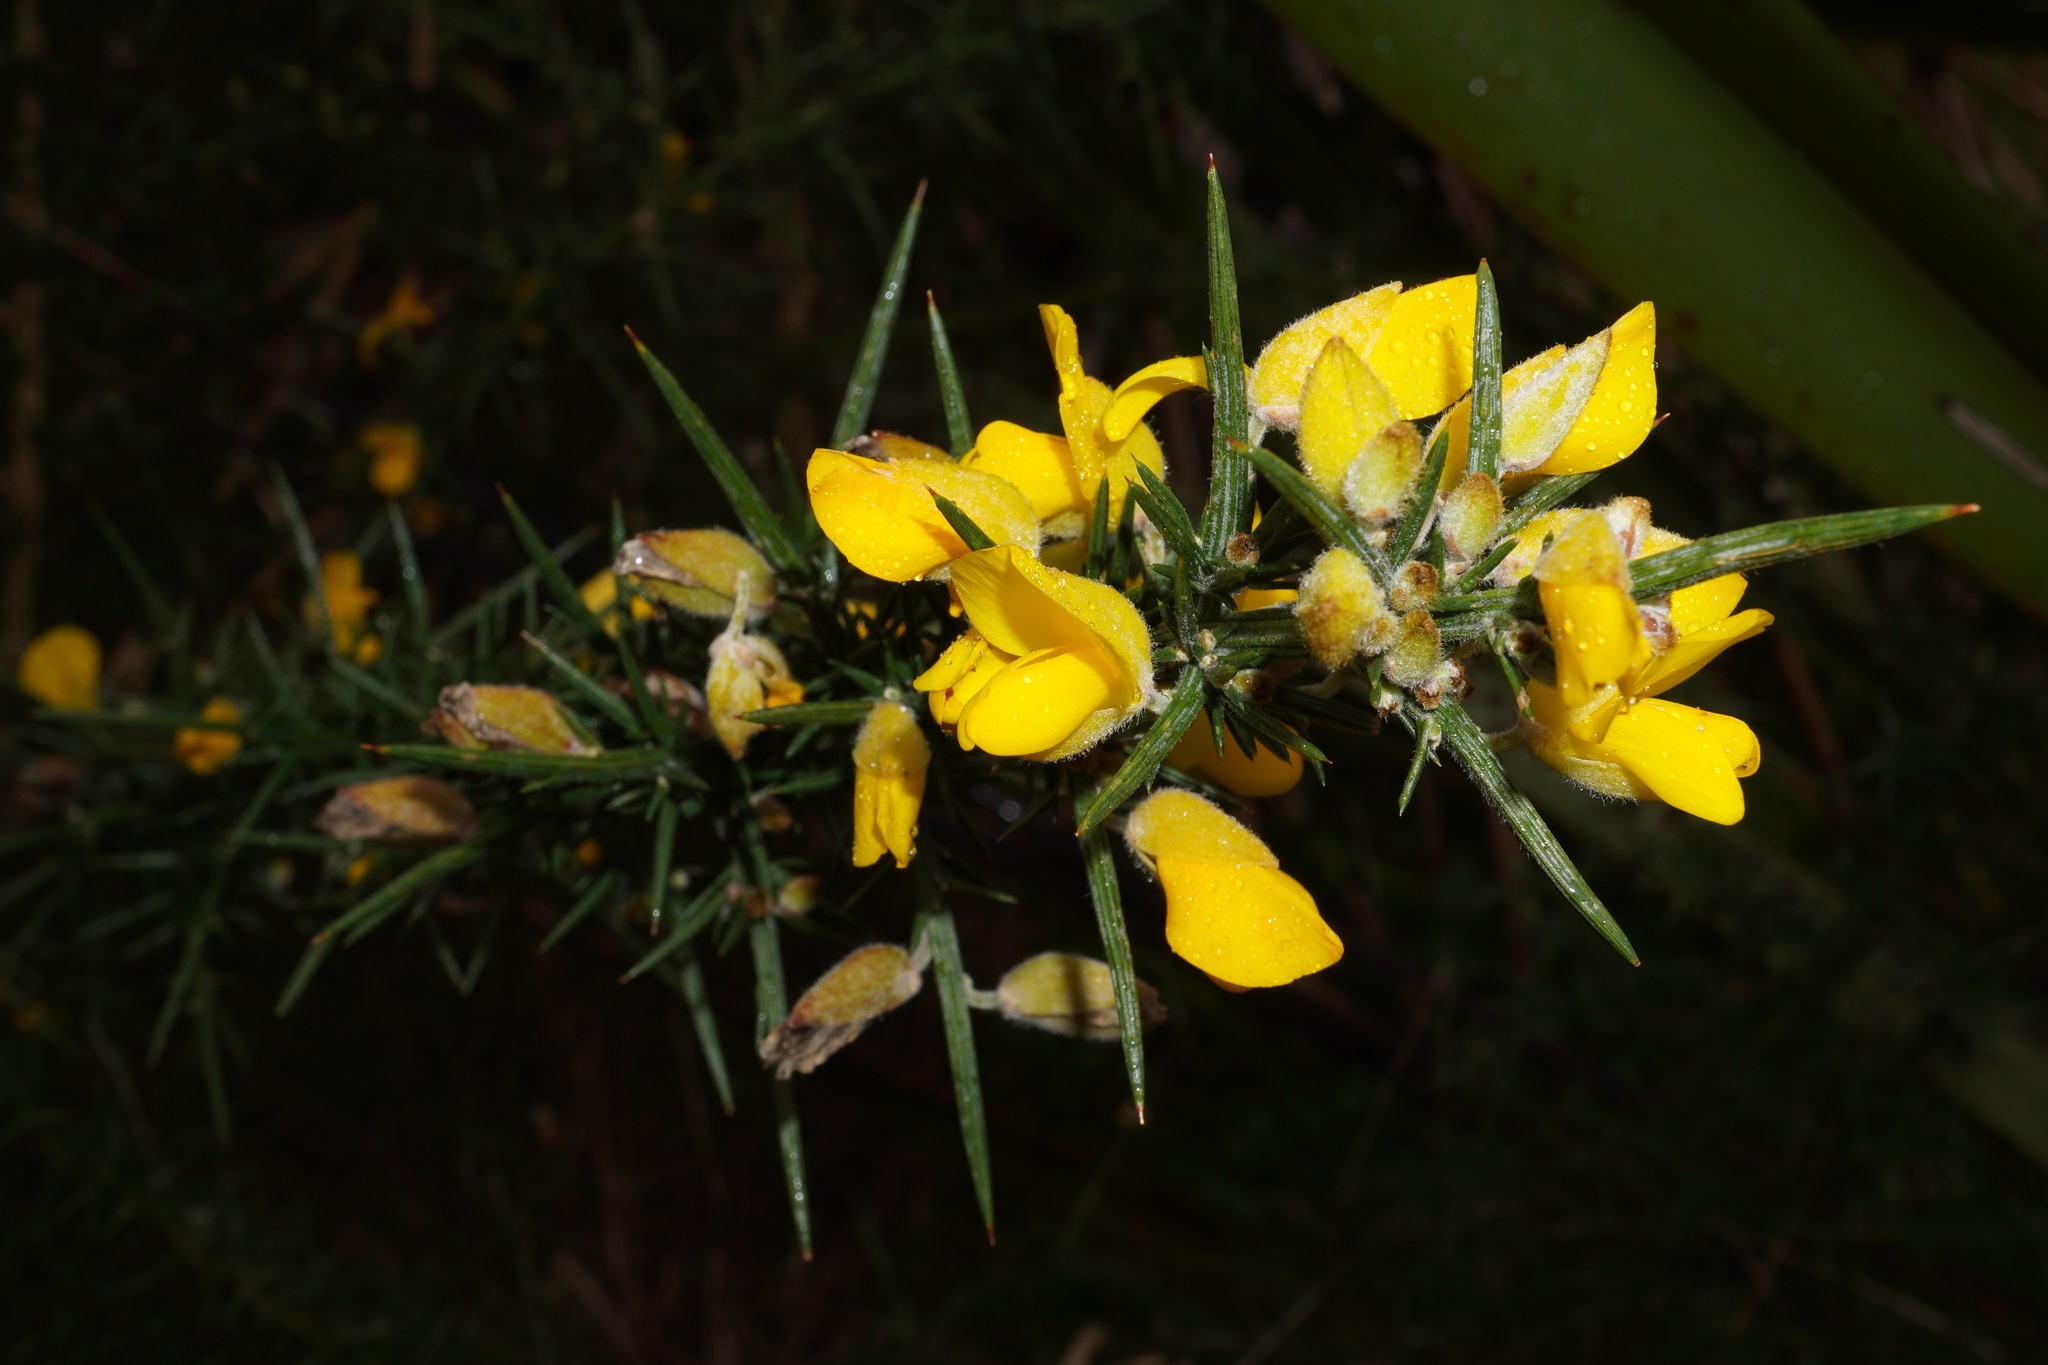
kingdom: Plantae
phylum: Tracheophyta
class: Magnoliopsida
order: Fabales
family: Fabaceae
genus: Ulex
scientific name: Ulex europaeus
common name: Common gorse
